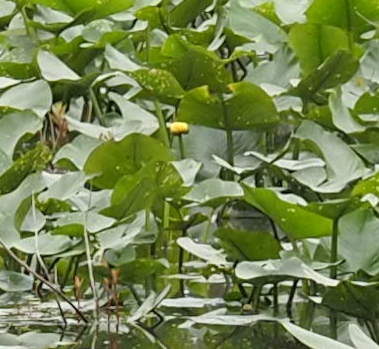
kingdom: Plantae
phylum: Tracheophyta
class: Magnoliopsida
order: Nymphaeales
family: Nymphaeaceae
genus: Nuphar
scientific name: Nuphar advena
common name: Spatter-dock
